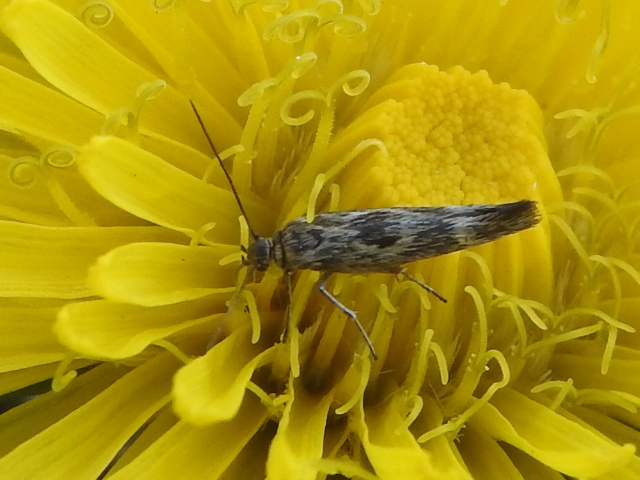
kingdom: Animalia
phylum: Arthropoda
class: Insecta
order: Lepidoptera
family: Scythrididae
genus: Scythris
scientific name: Scythris trivinctella
